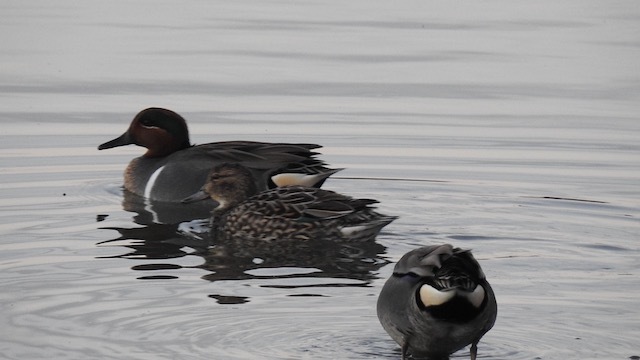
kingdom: Animalia
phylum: Chordata
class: Aves
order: Anseriformes
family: Anatidae
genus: Anas
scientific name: Anas carolinensis
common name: Green-winged teal
